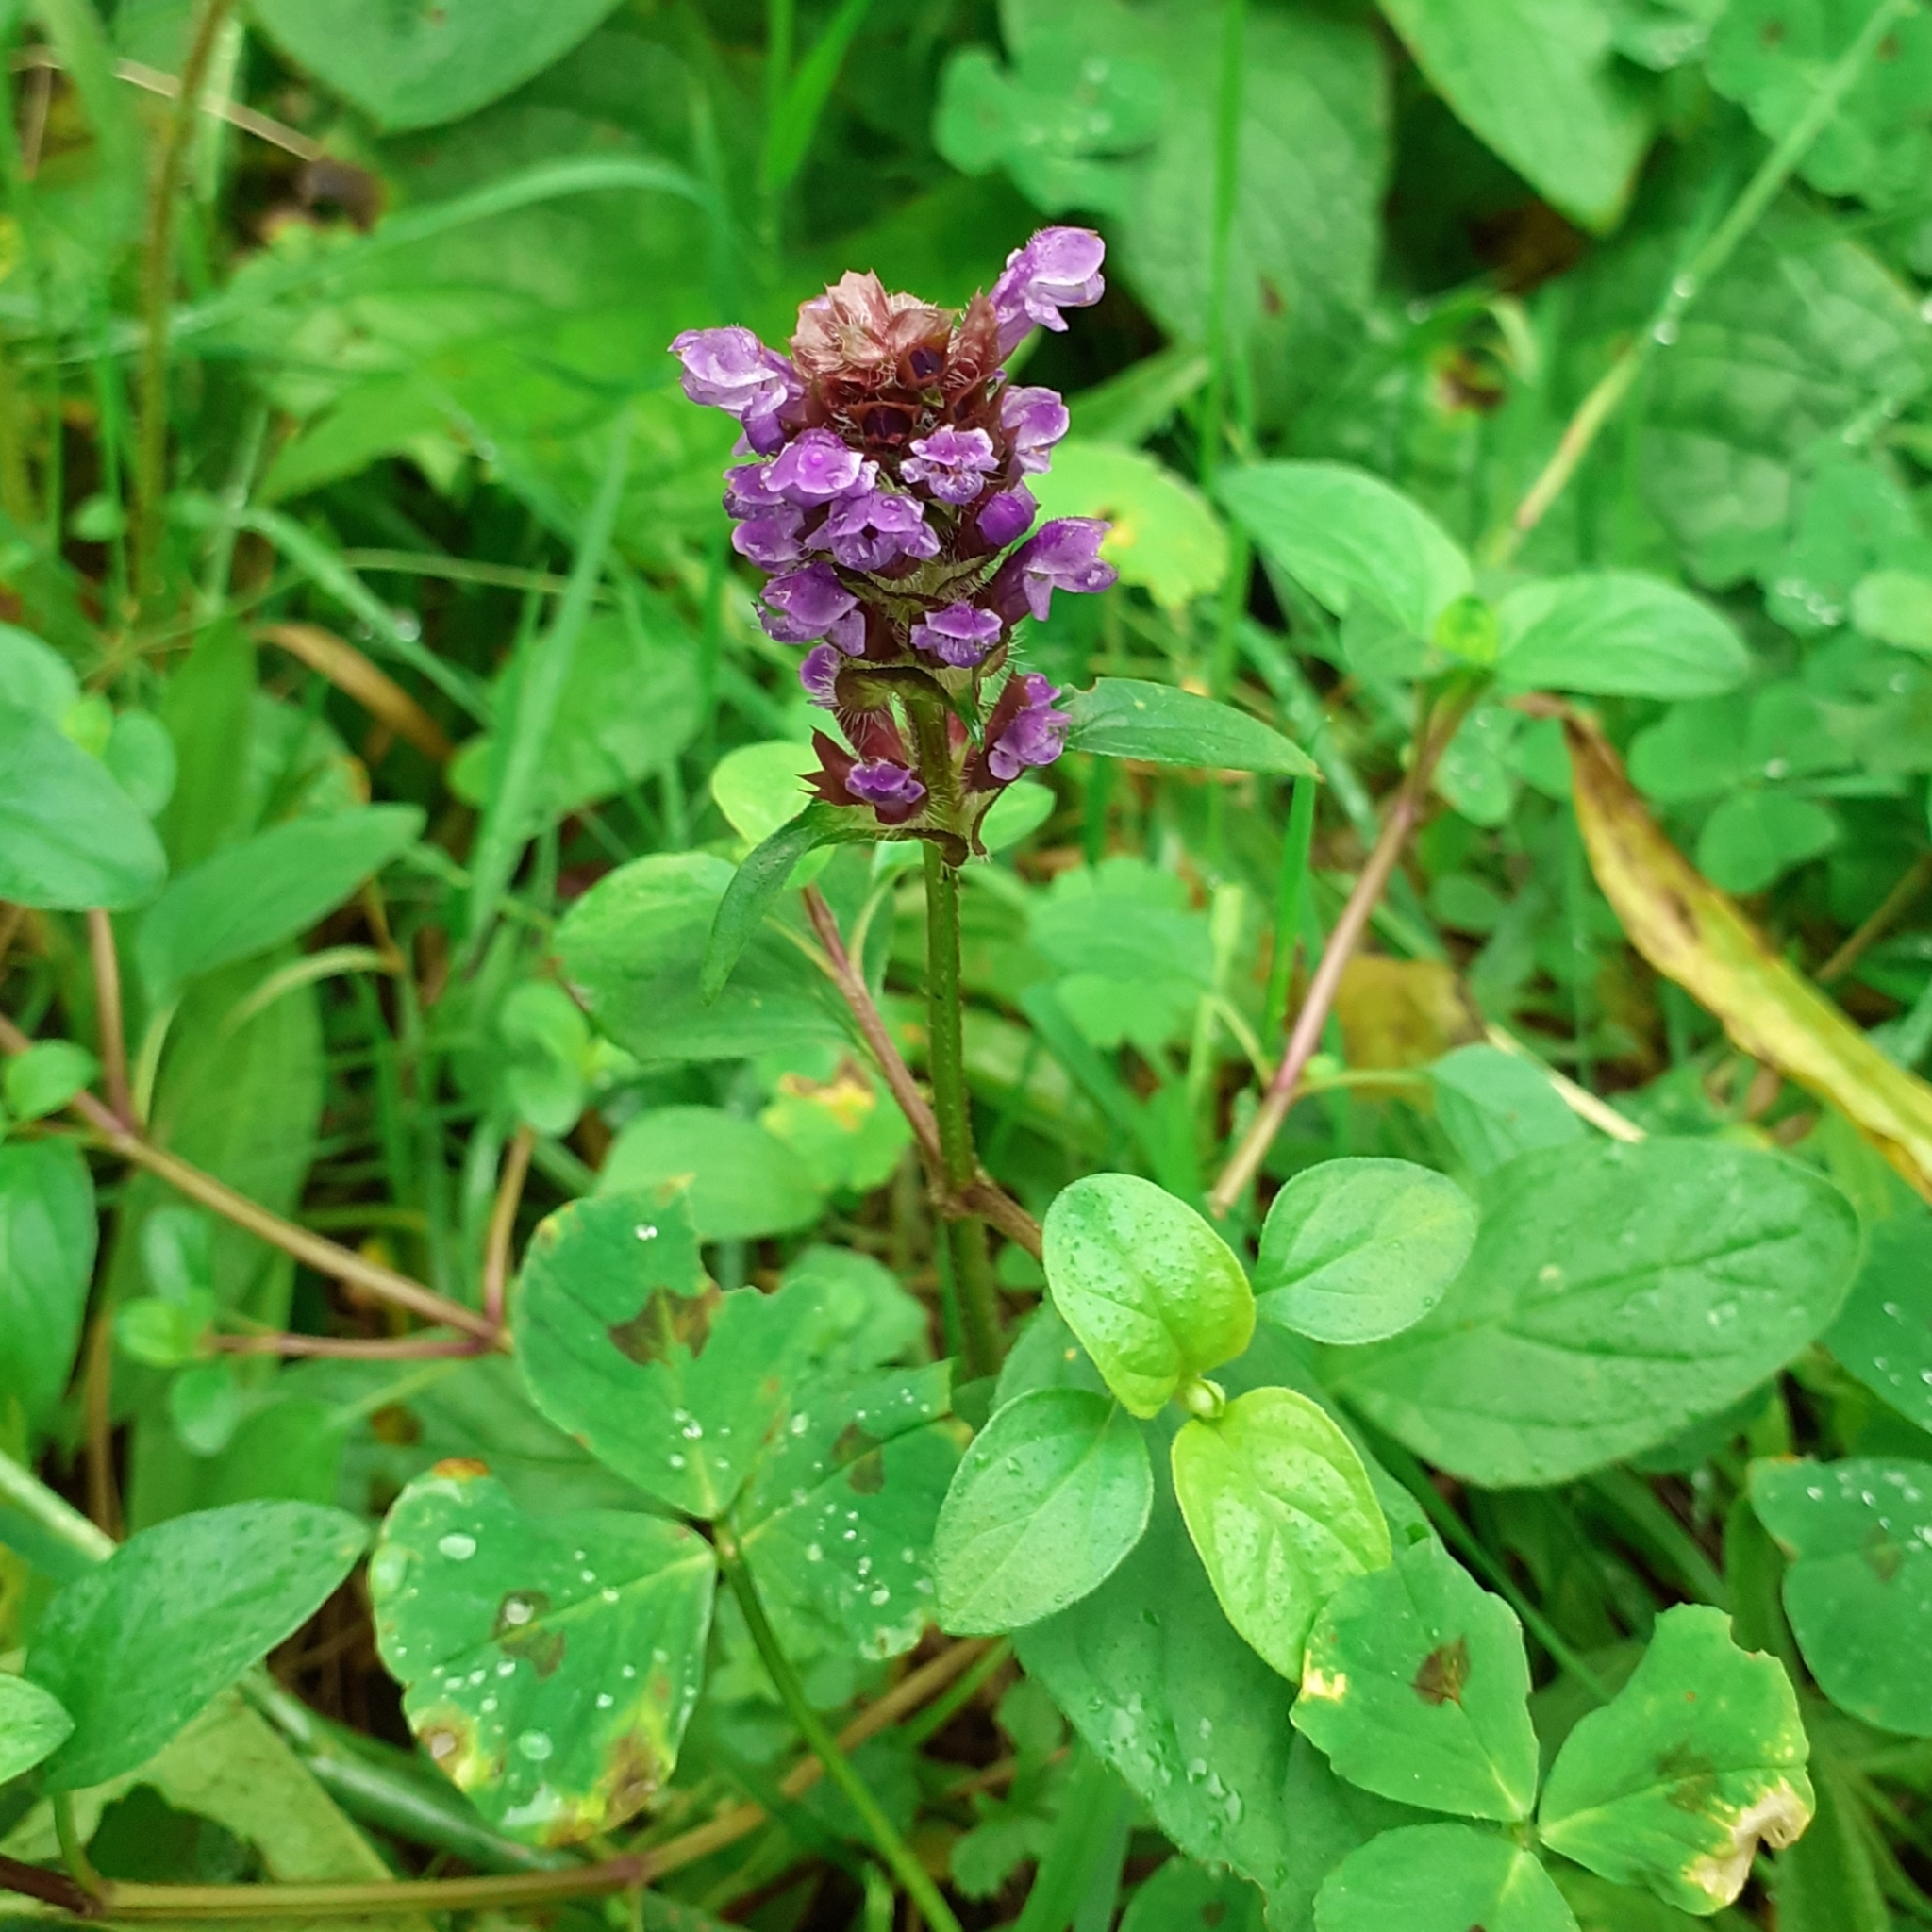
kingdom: Plantae
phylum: Tracheophyta
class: Magnoliopsida
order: Lamiales
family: Lamiaceae
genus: Prunella
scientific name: Prunella vulgaris
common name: Heal-all
